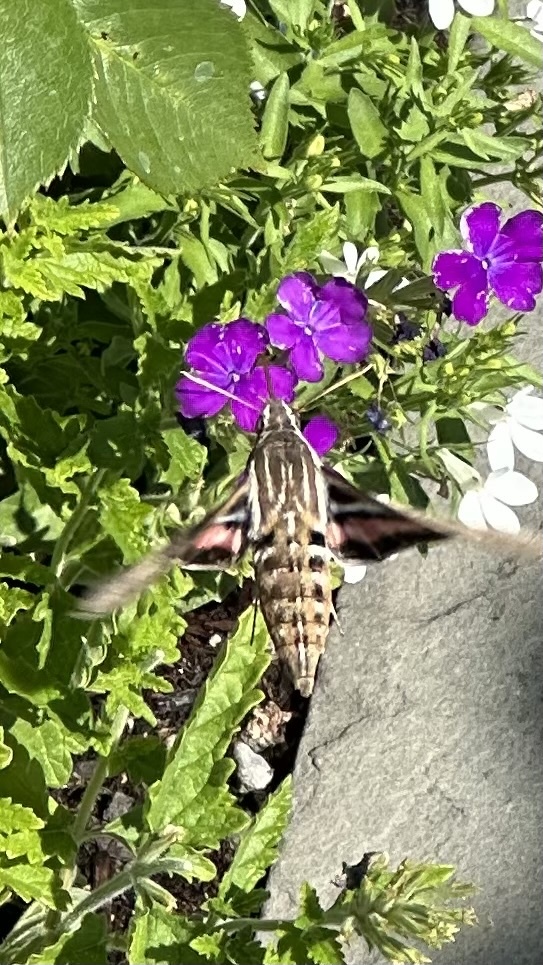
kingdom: Animalia
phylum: Arthropoda
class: Insecta
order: Lepidoptera
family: Sphingidae
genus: Hyles
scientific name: Hyles lineata
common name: White-lined sphinx
